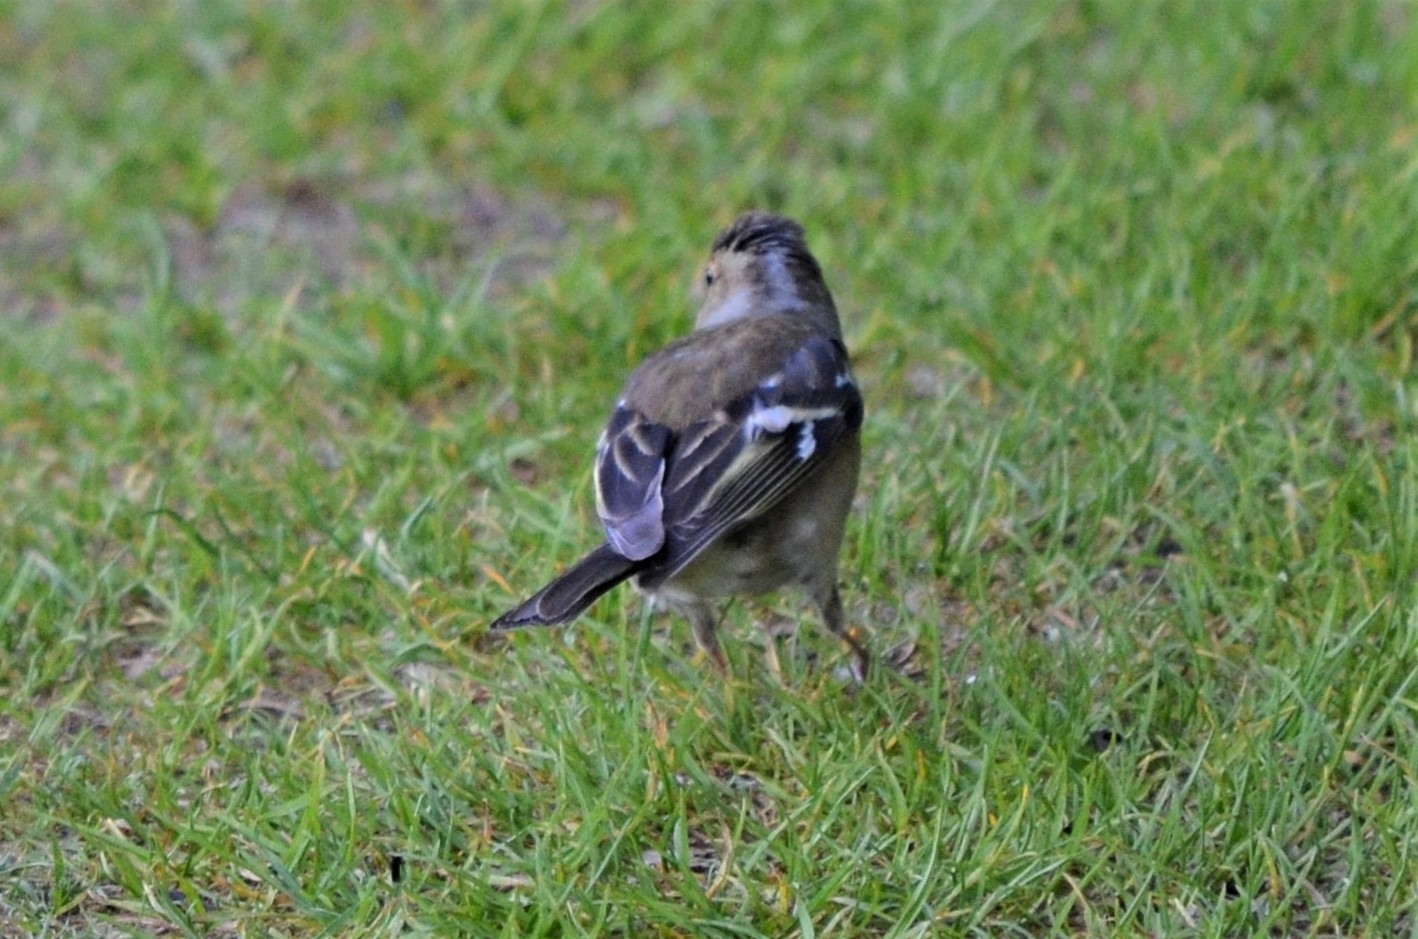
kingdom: Animalia
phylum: Chordata
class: Aves
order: Passeriformes
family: Fringillidae
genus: Fringilla
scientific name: Fringilla coelebs
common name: Common chaffinch
